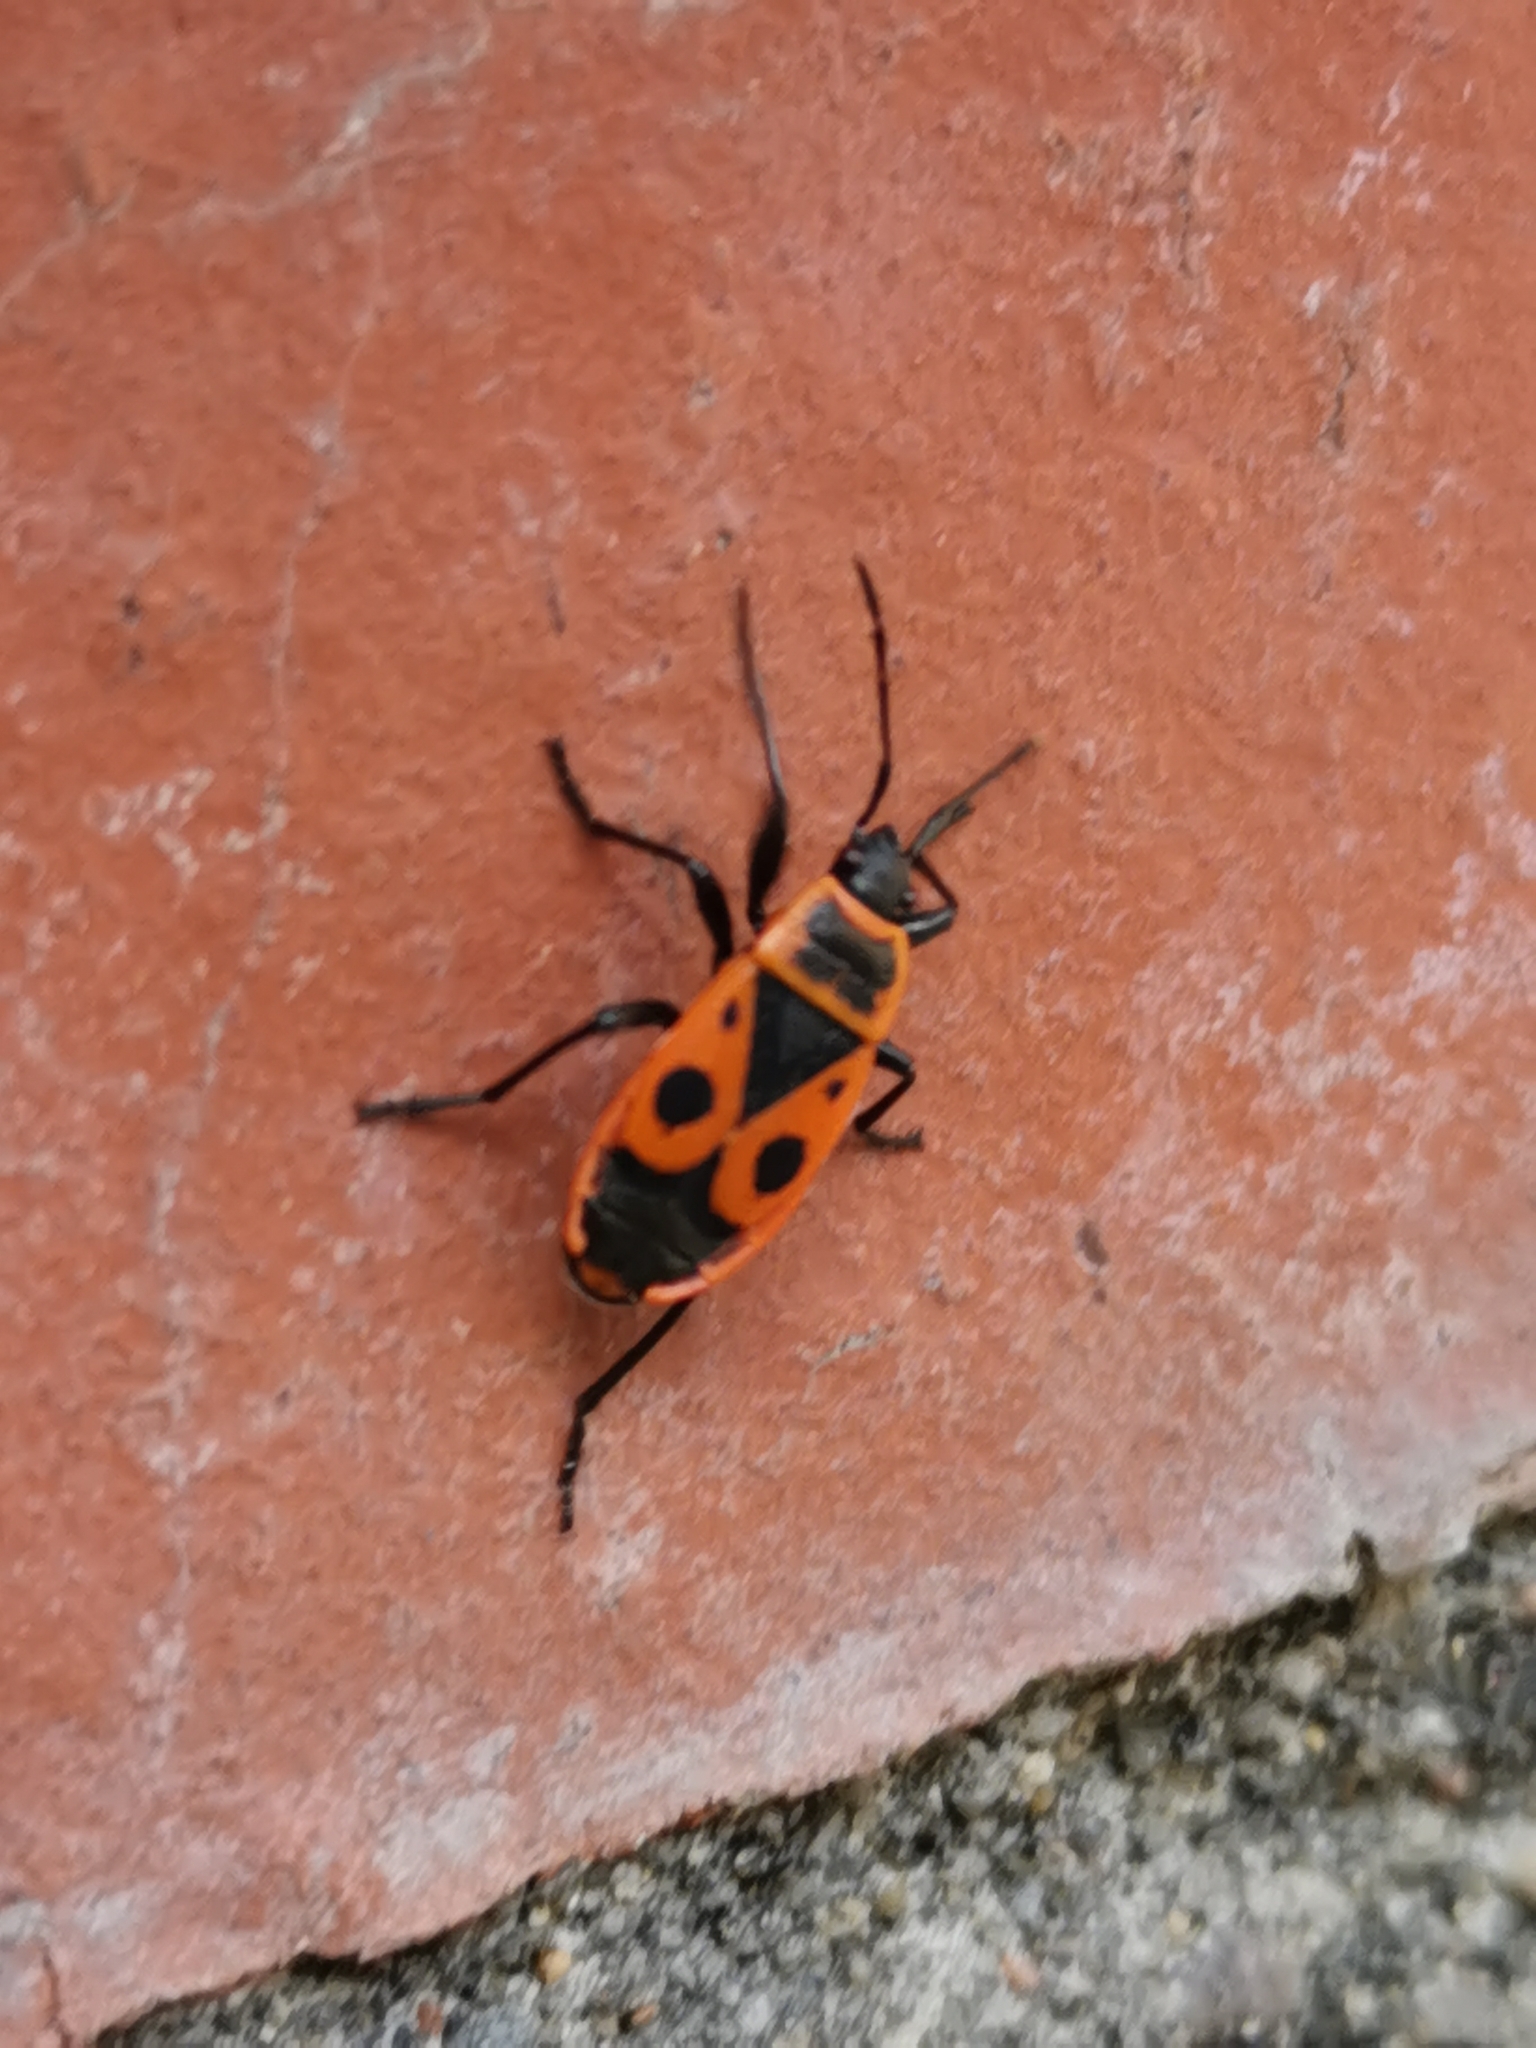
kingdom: Animalia
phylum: Arthropoda
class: Insecta
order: Hemiptera
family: Pyrrhocoridae
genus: Pyrrhocoris
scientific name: Pyrrhocoris apterus
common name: Firebug
